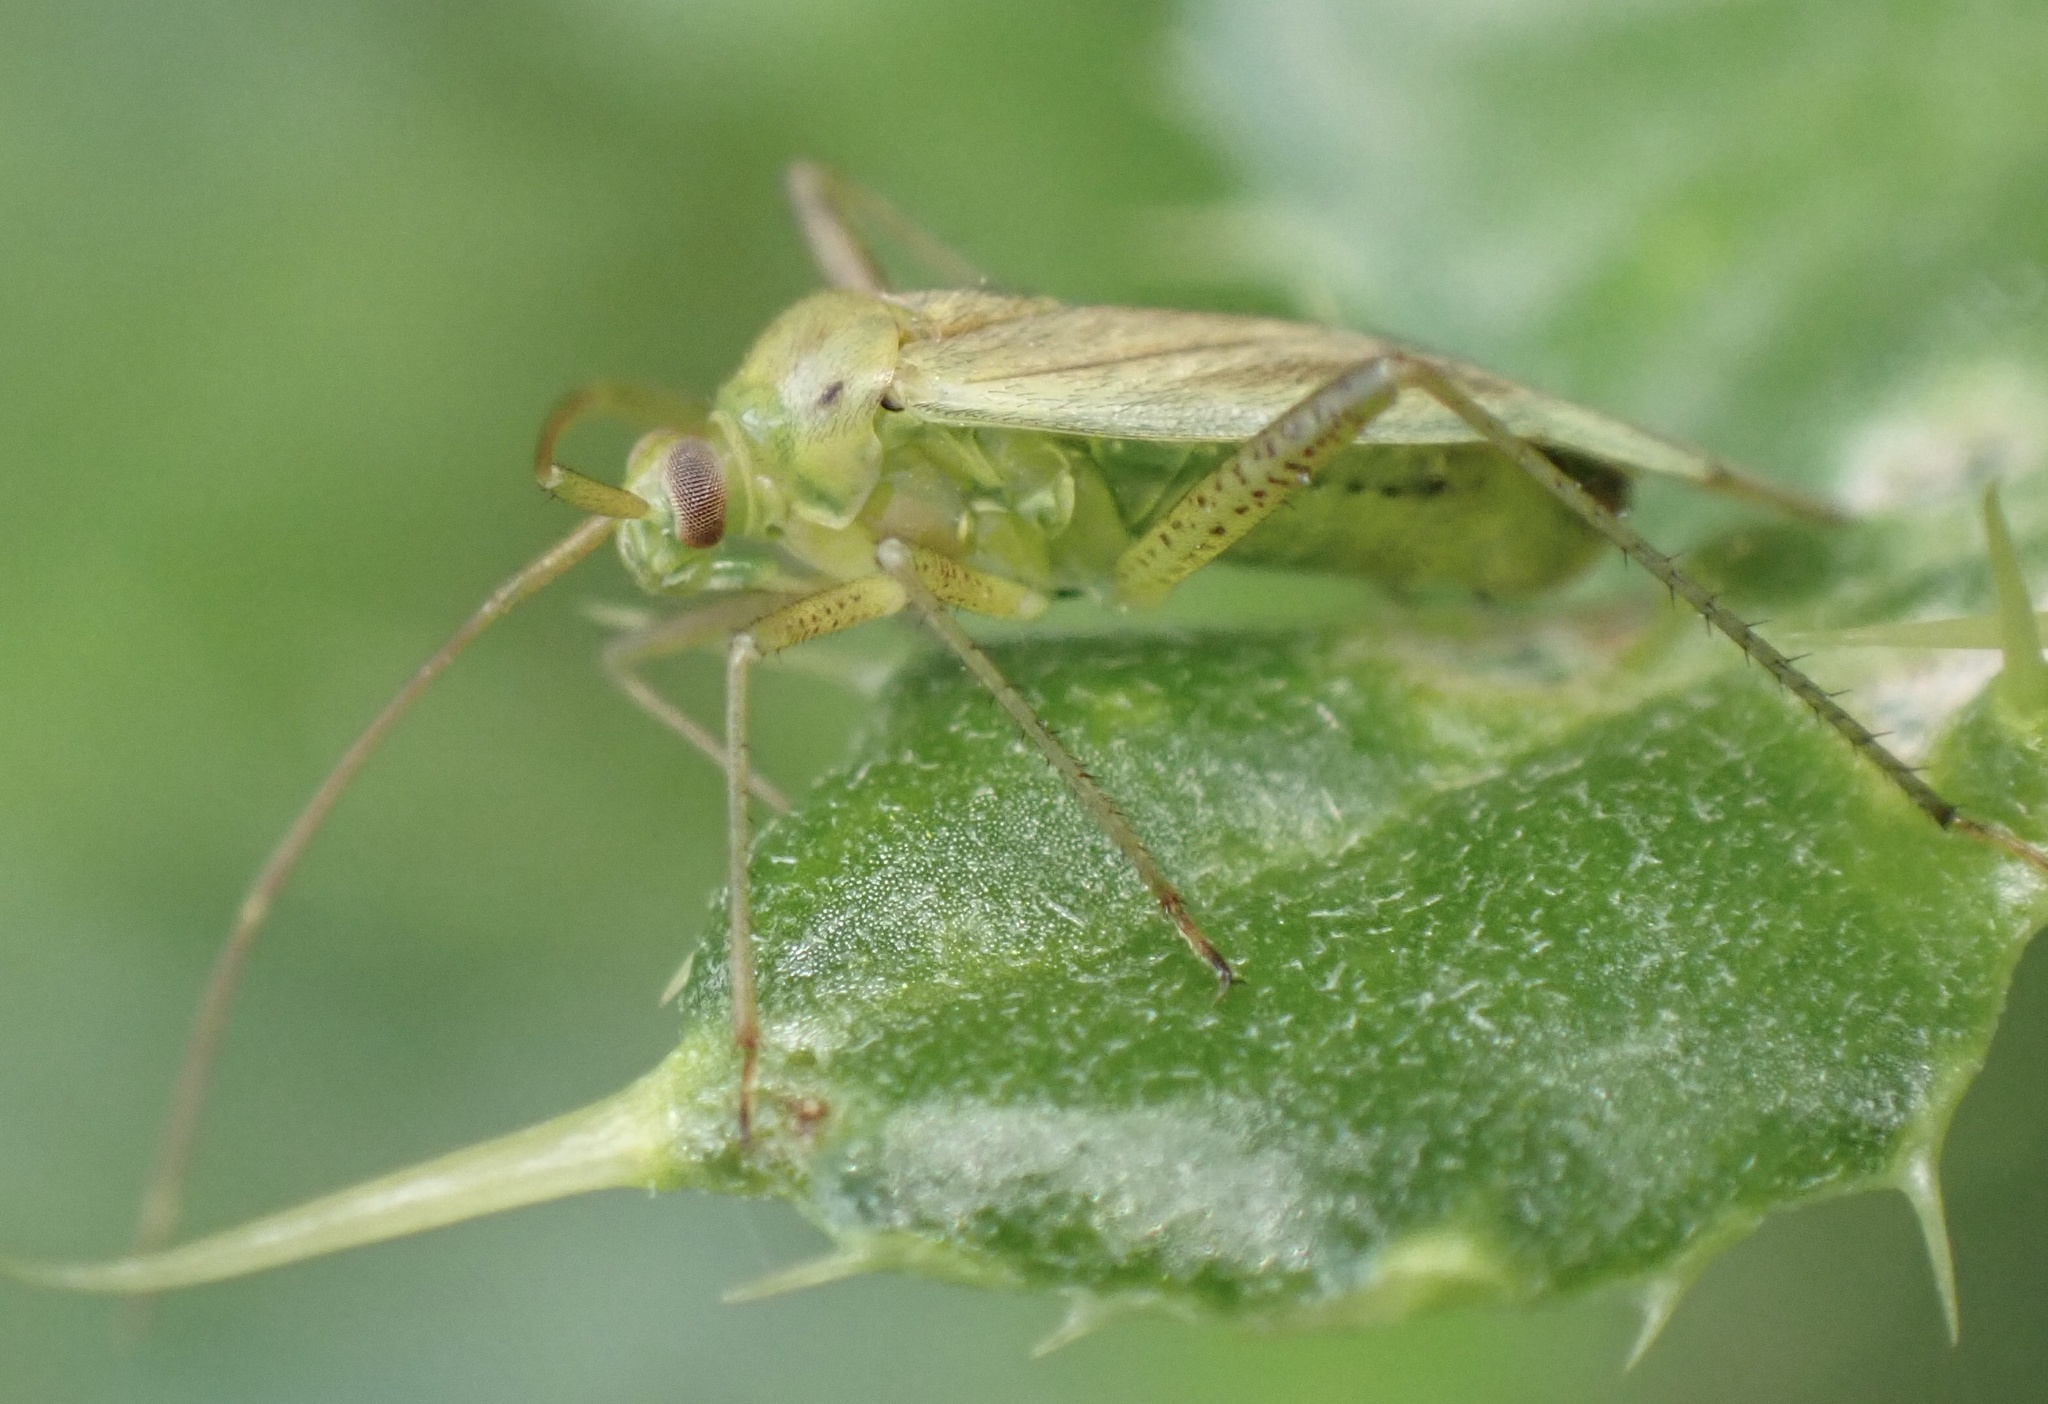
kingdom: Animalia
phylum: Arthropoda
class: Insecta
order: Hemiptera
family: Miridae
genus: Adelphocoris
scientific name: Adelphocoris quadripunctatus
